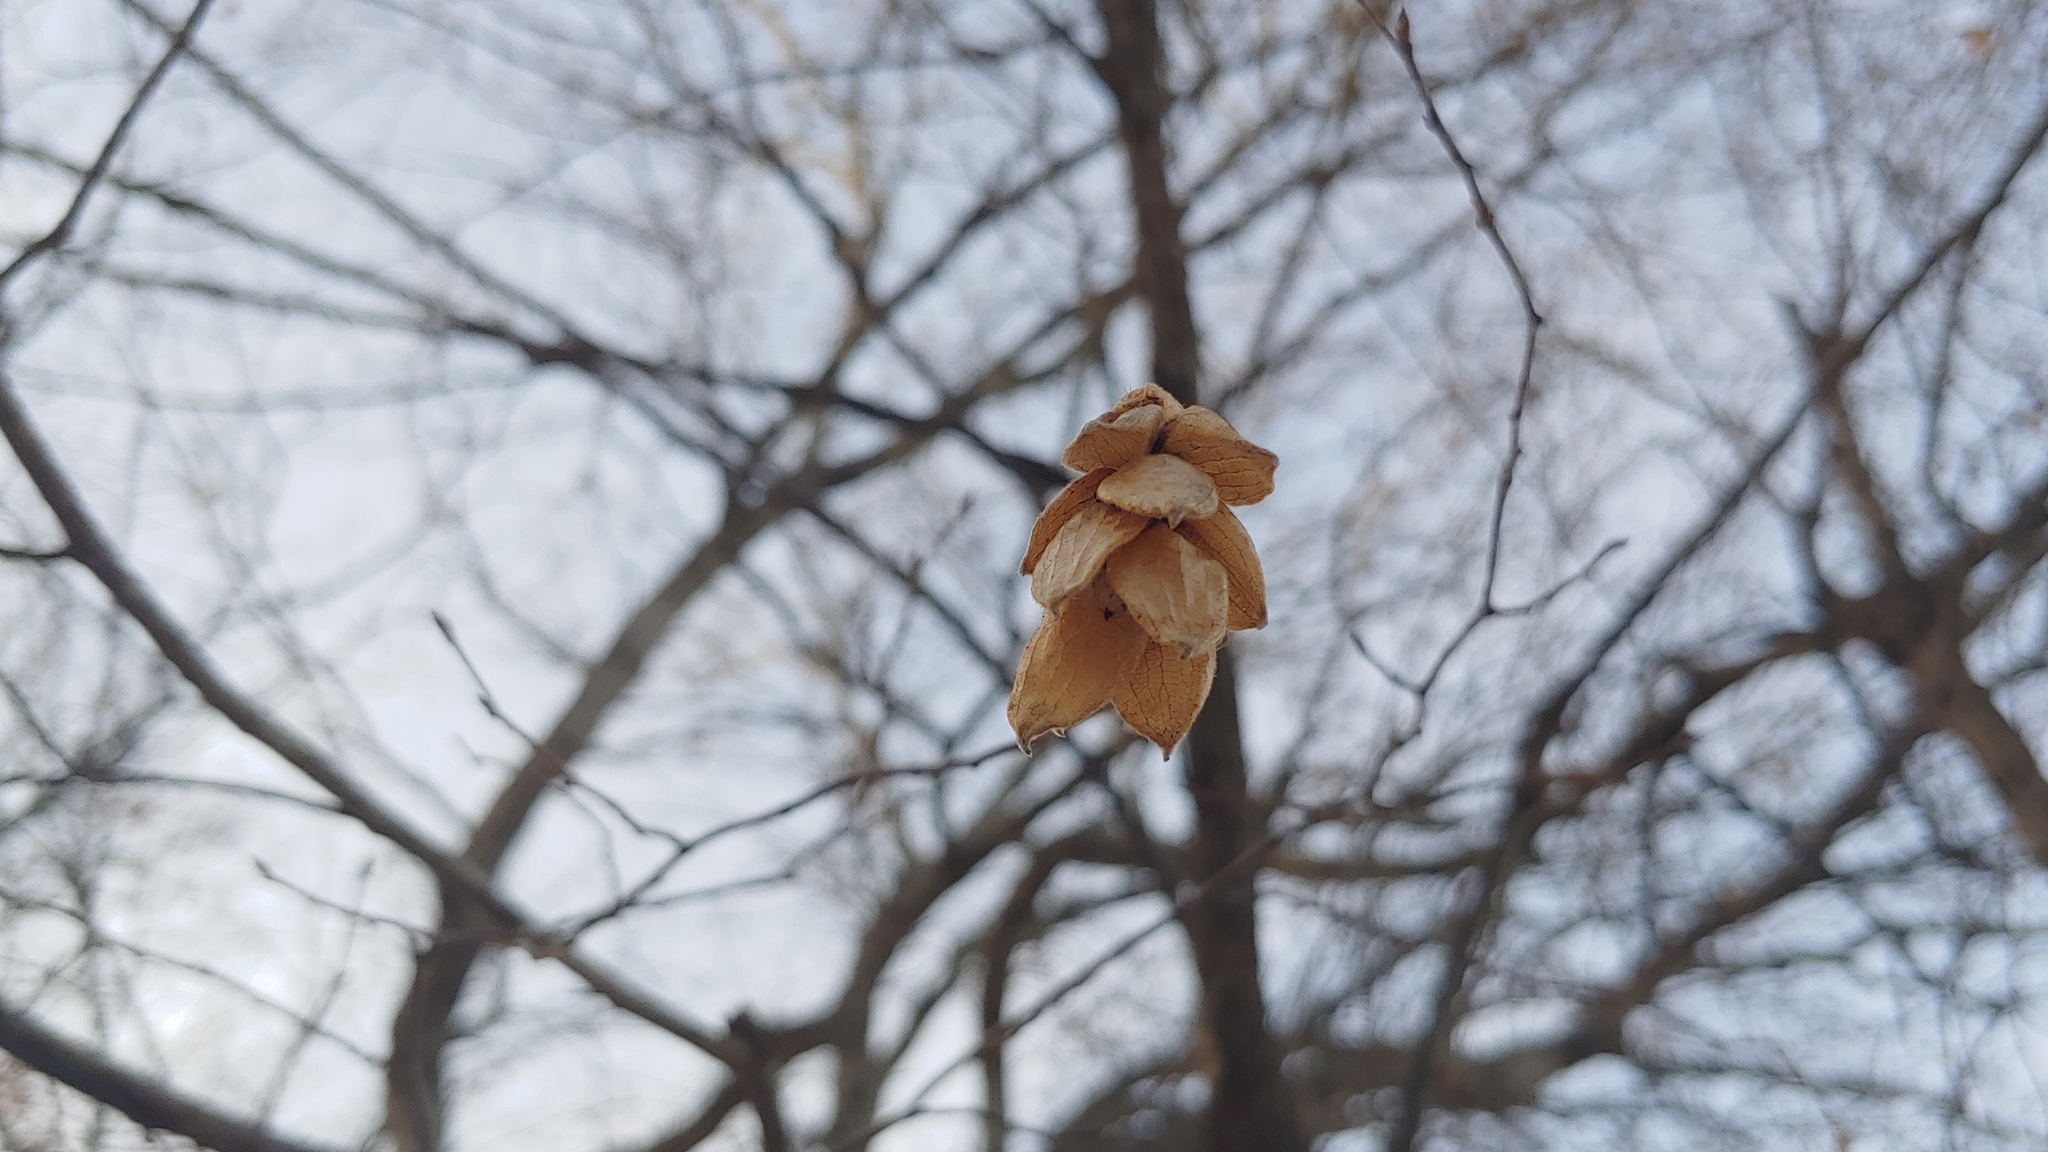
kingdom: Plantae
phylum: Tracheophyta
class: Magnoliopsida
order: Fagales
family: Betulaceae
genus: Ostrya
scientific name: Ostrya virginiana
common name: Ironwood
